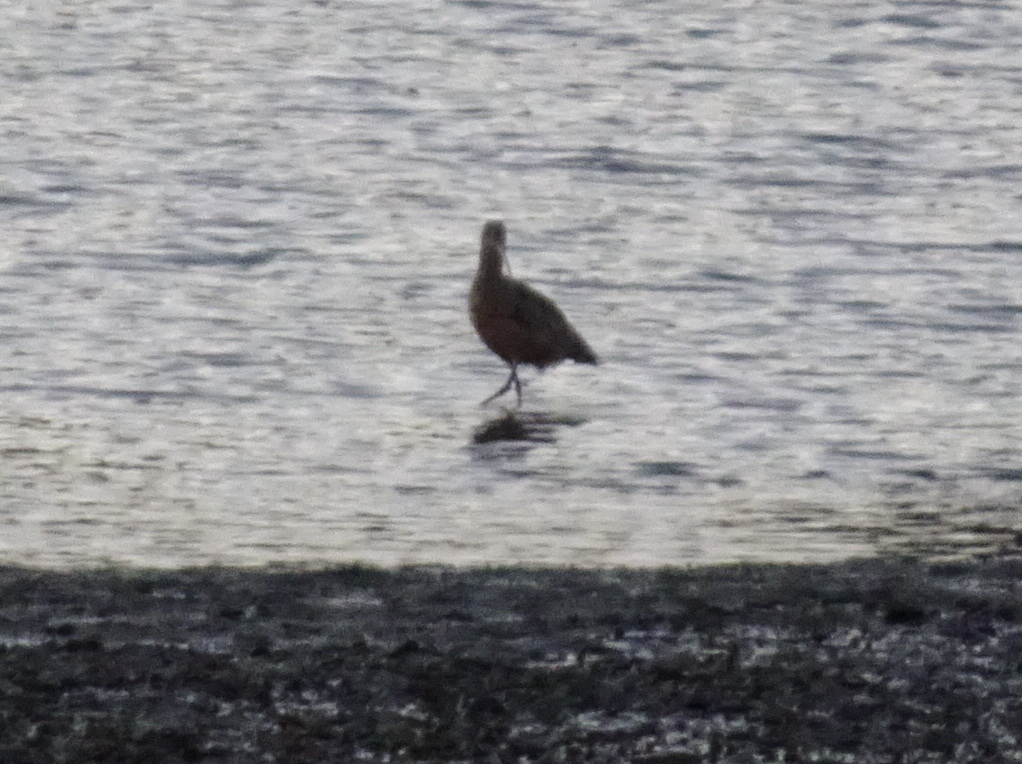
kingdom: Animalia
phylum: Chordata
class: Aves
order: Charadriiformes
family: Scolopacidae
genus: Numenius
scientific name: Numenius americanus
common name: Long-billed curlew
